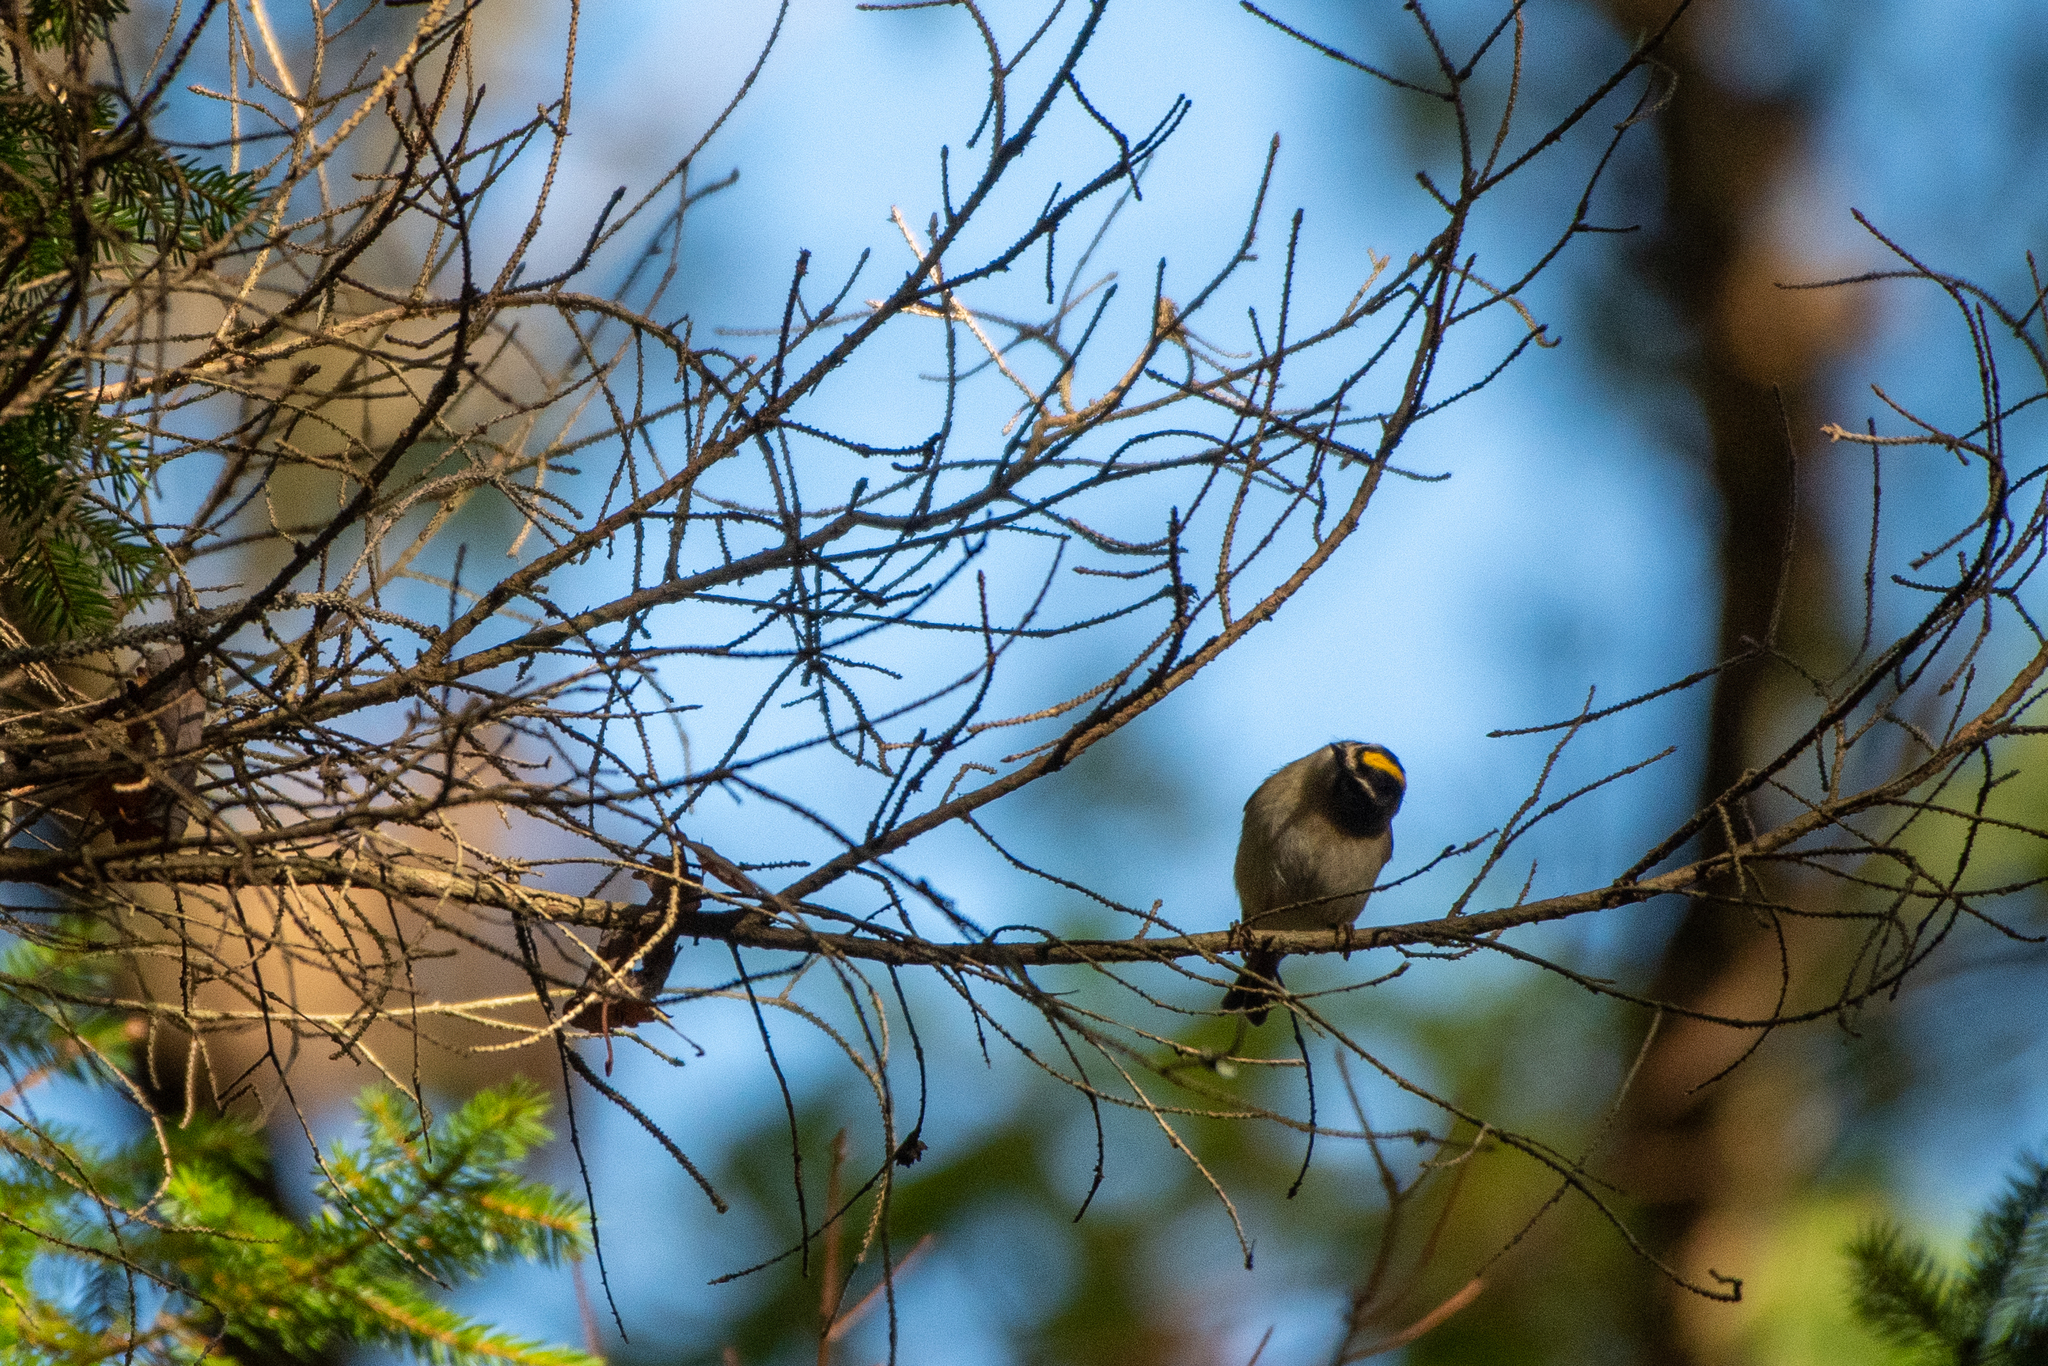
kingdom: Animalia
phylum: Chordata
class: Aves
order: Passeriformes
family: Regulidae
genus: Regulus
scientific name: Regulus satrapa
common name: Golden-crowned kinglet
